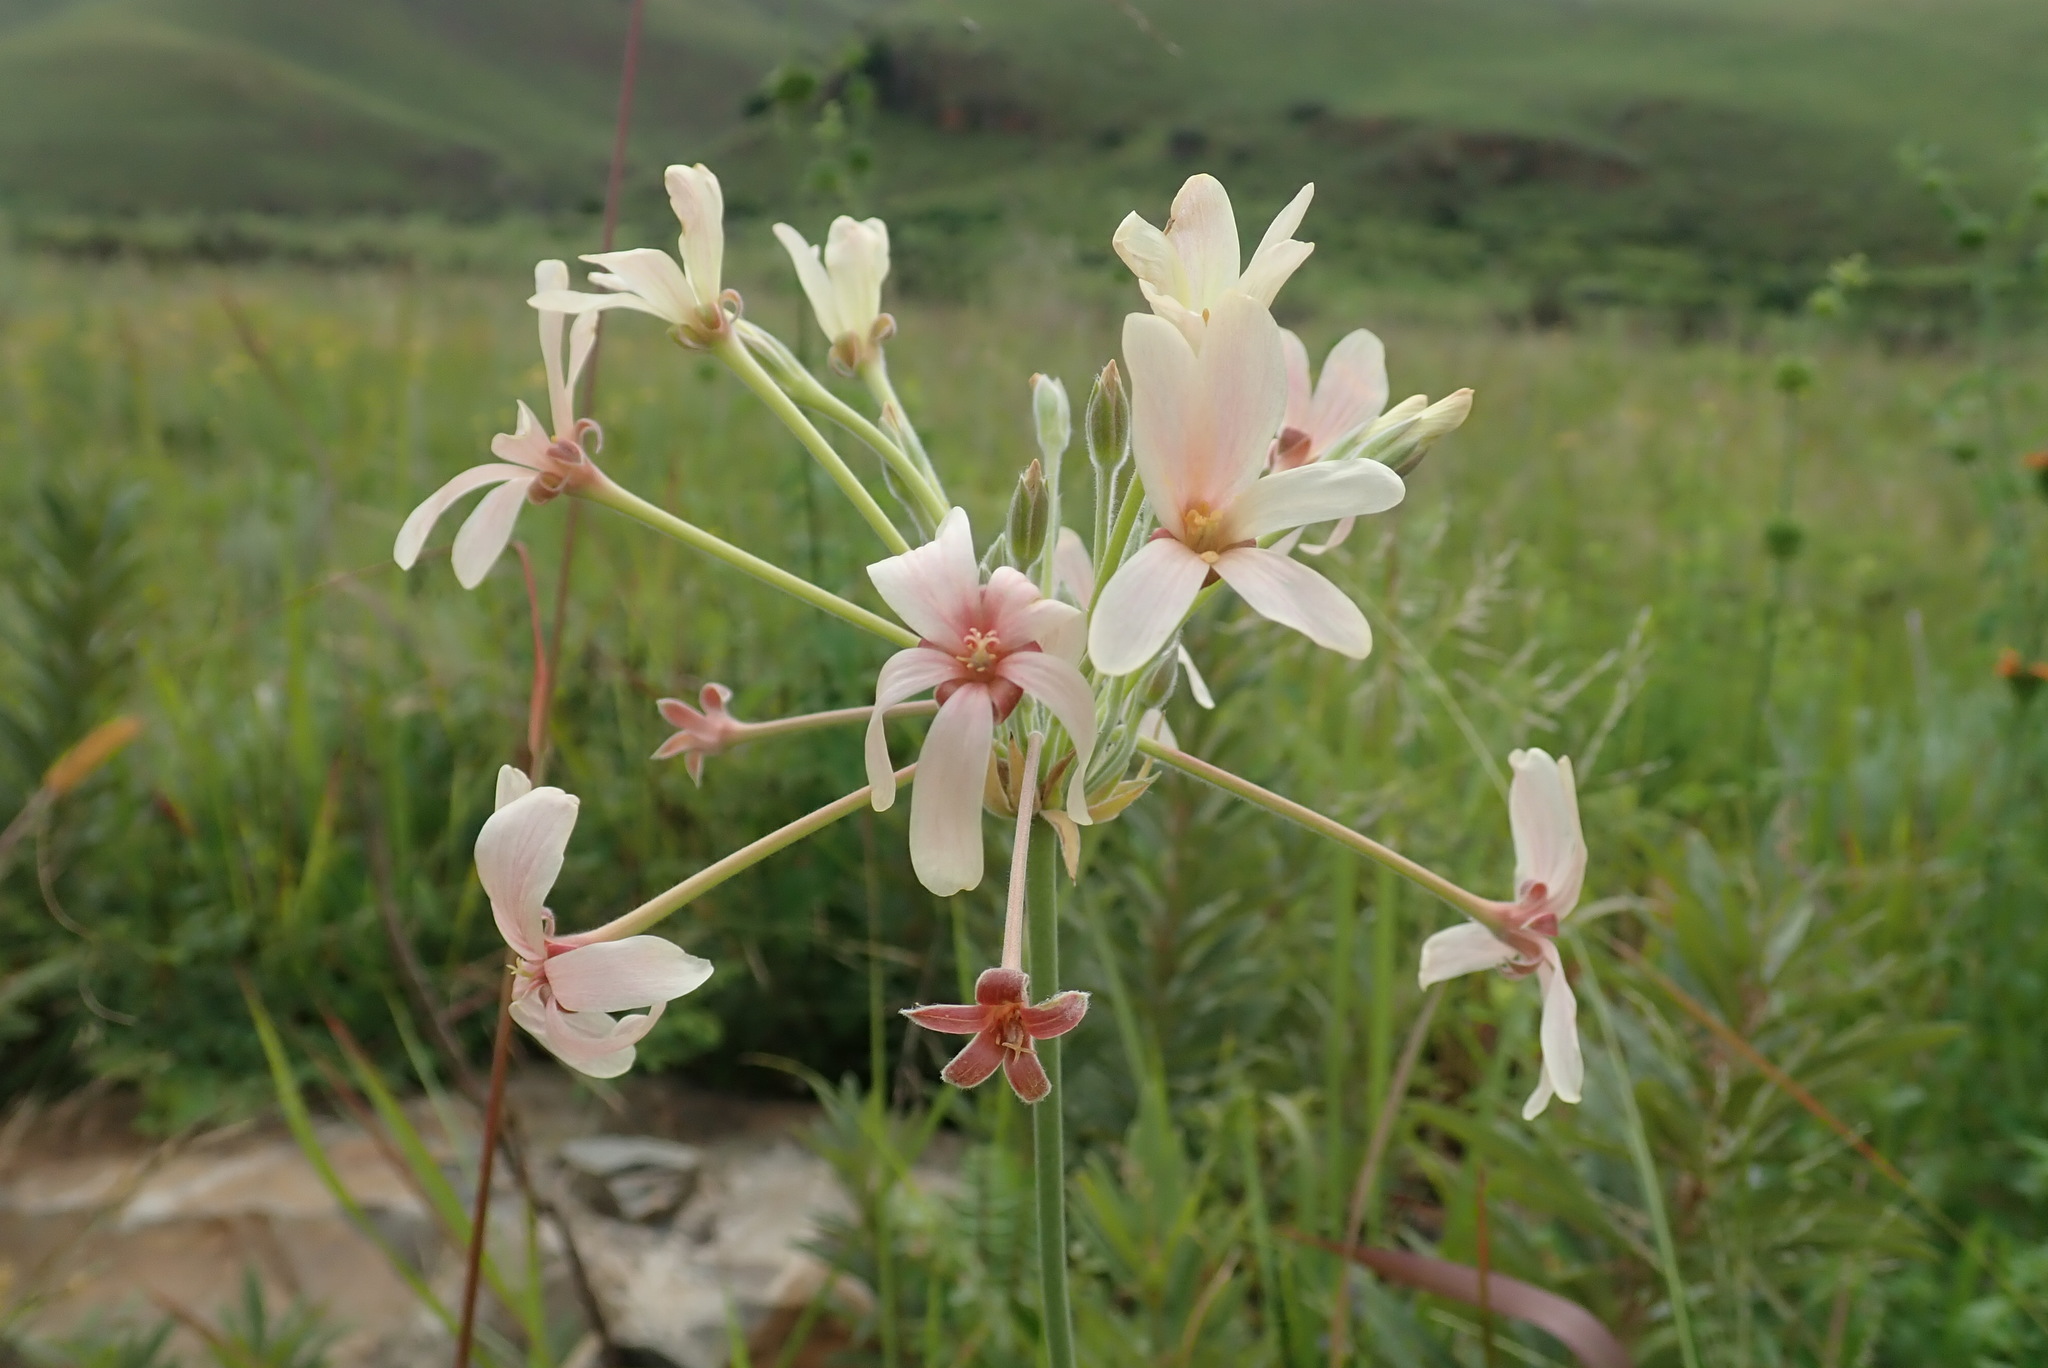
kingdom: Plantae
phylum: Tracheophyta
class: Magnoliopsida
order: Geraniales
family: Geraniaceae
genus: Pelargonium
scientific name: Pelargonium luridum
